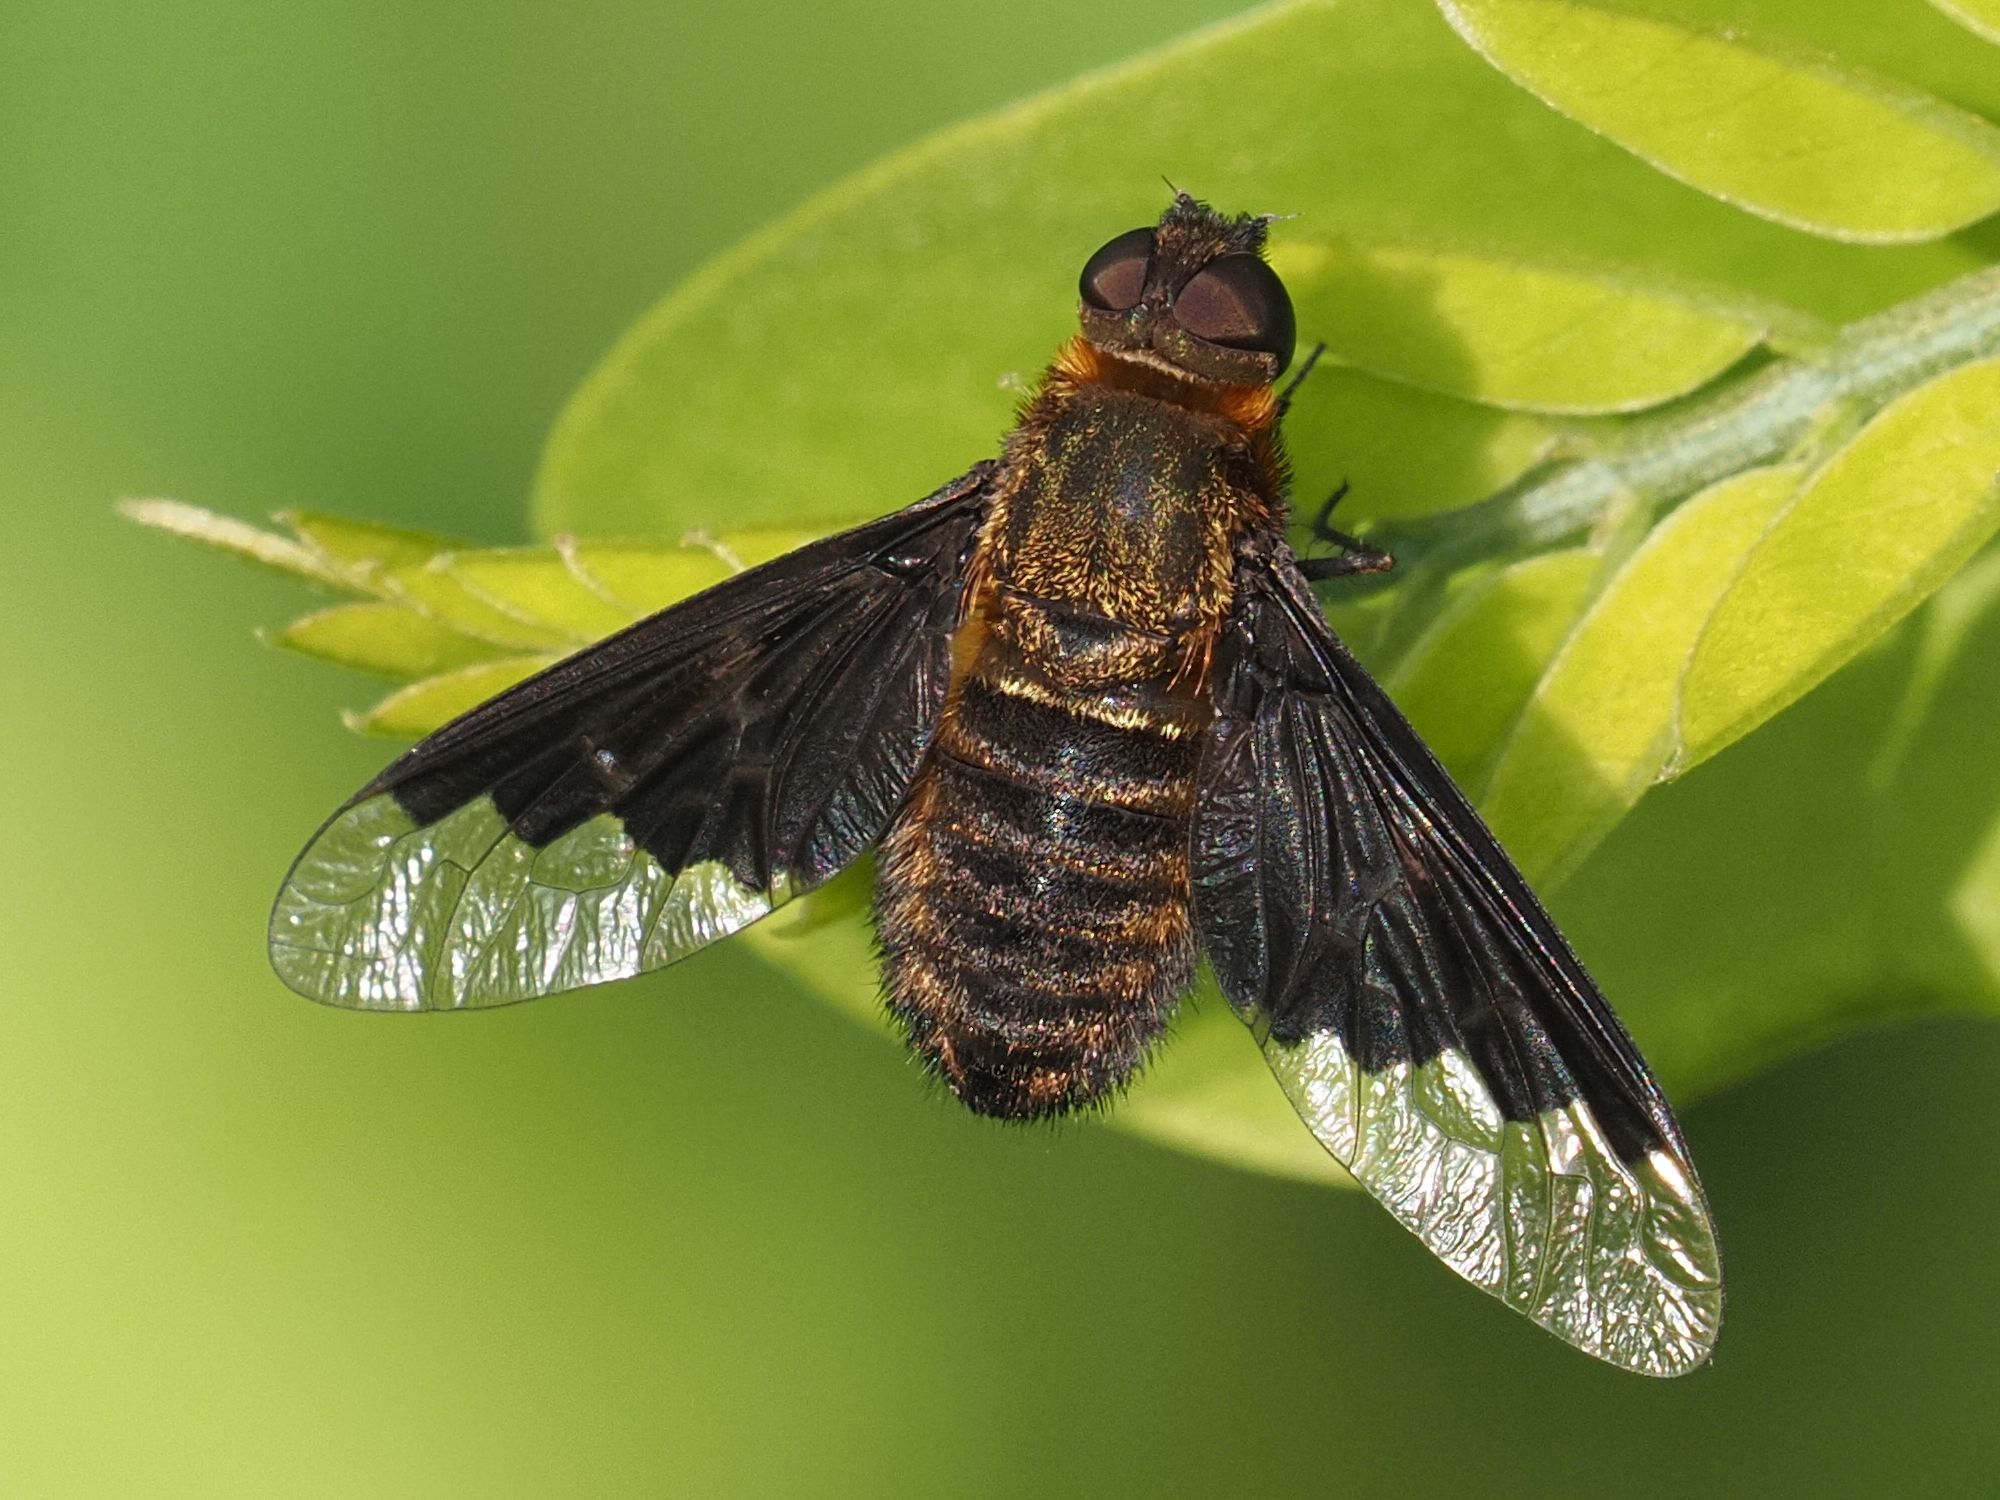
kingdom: Animalia
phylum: Arthropoda
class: Insecta
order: Diptera
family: Bombyliidae
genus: Hemipenthes
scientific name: Hemipenthes morio
